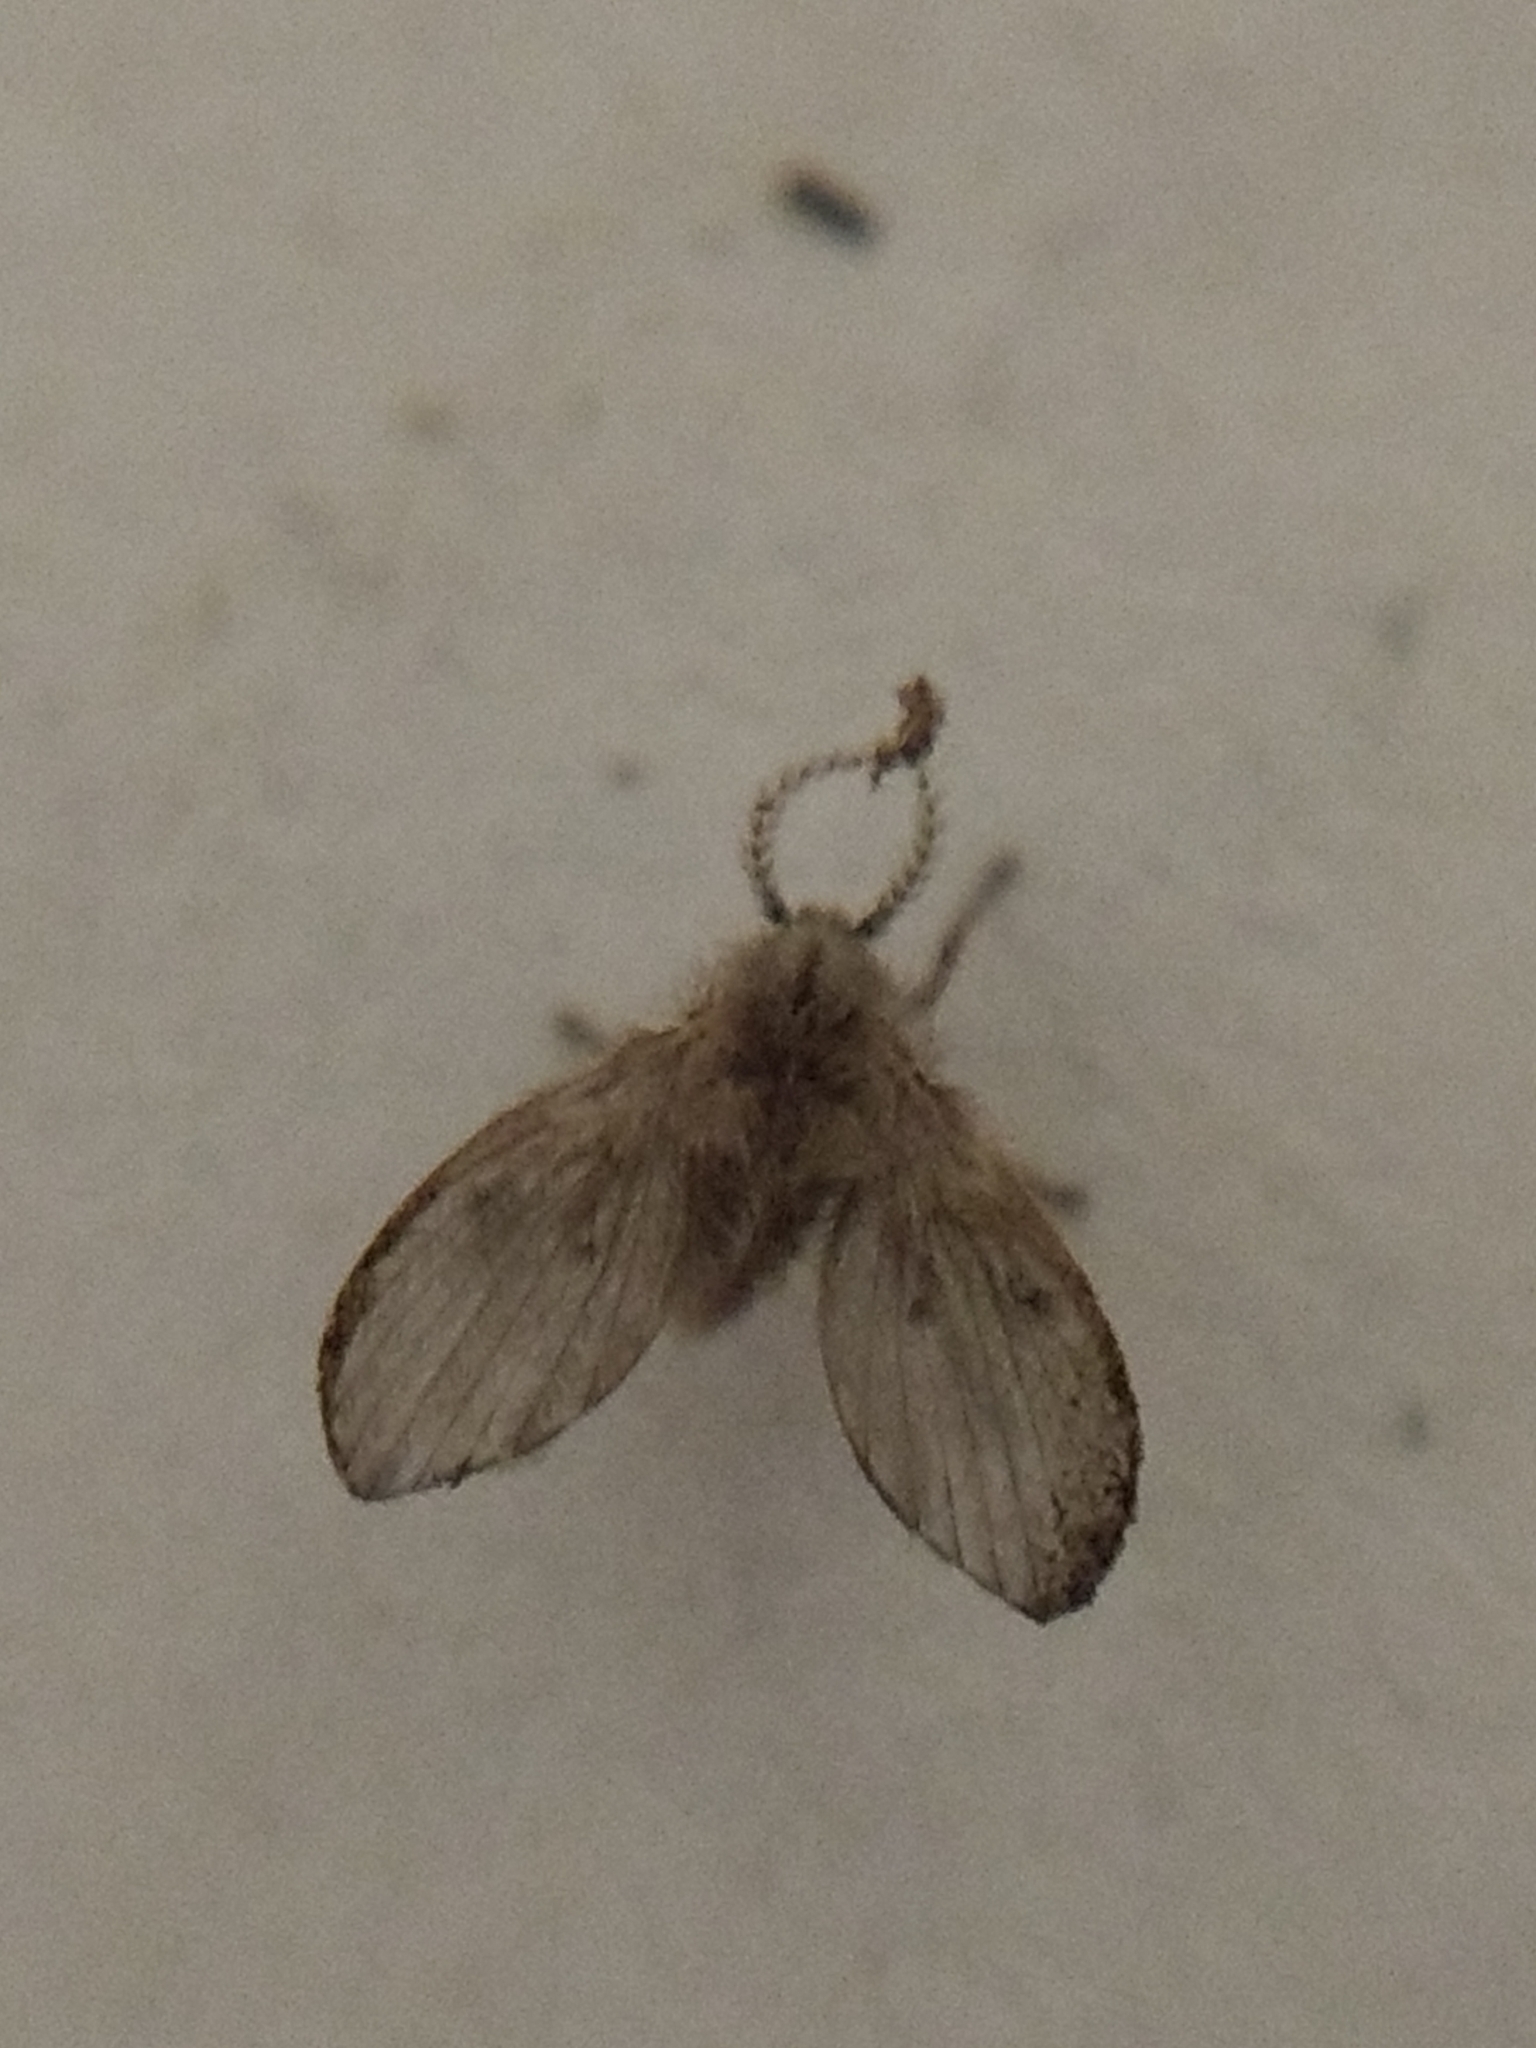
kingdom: Animalia
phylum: Arthropoda
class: Insecta
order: Diptera
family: Psychodidae
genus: Clogmia
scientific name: Clogmia albipunctatus
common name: White-spotted moth fly
